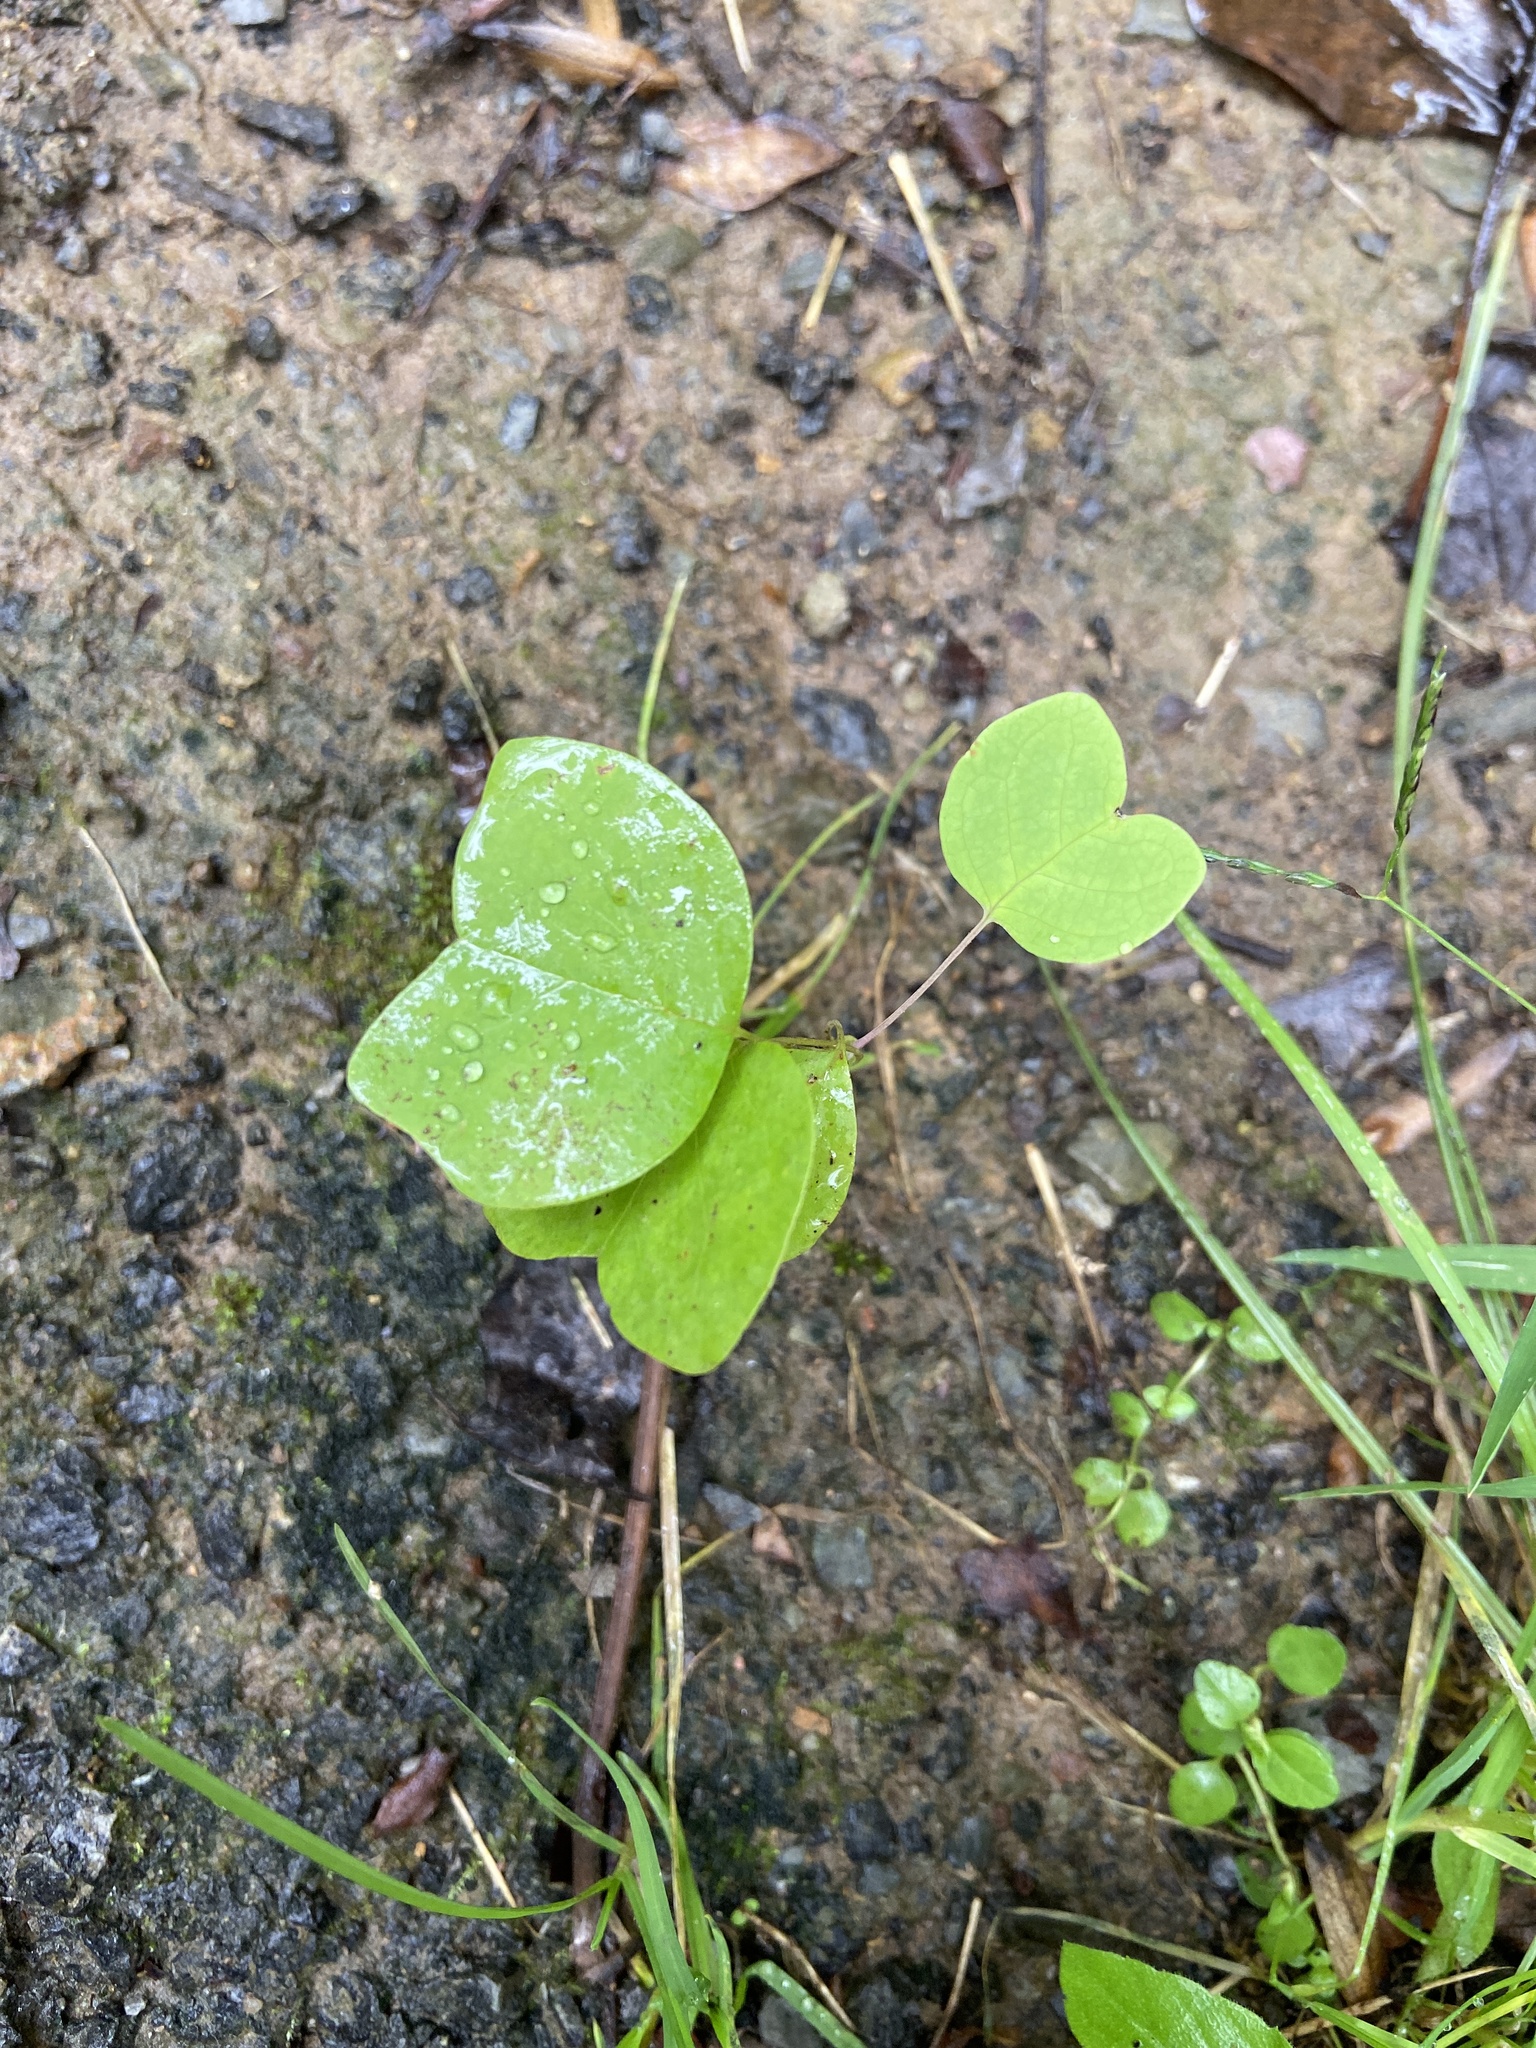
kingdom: Plantae
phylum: Tracheophyta
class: Magnoliopsida
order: Magnoliales
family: Magnoliaceae
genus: Liriodendron
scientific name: Liriodendron tulipifera
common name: Tulip tree
